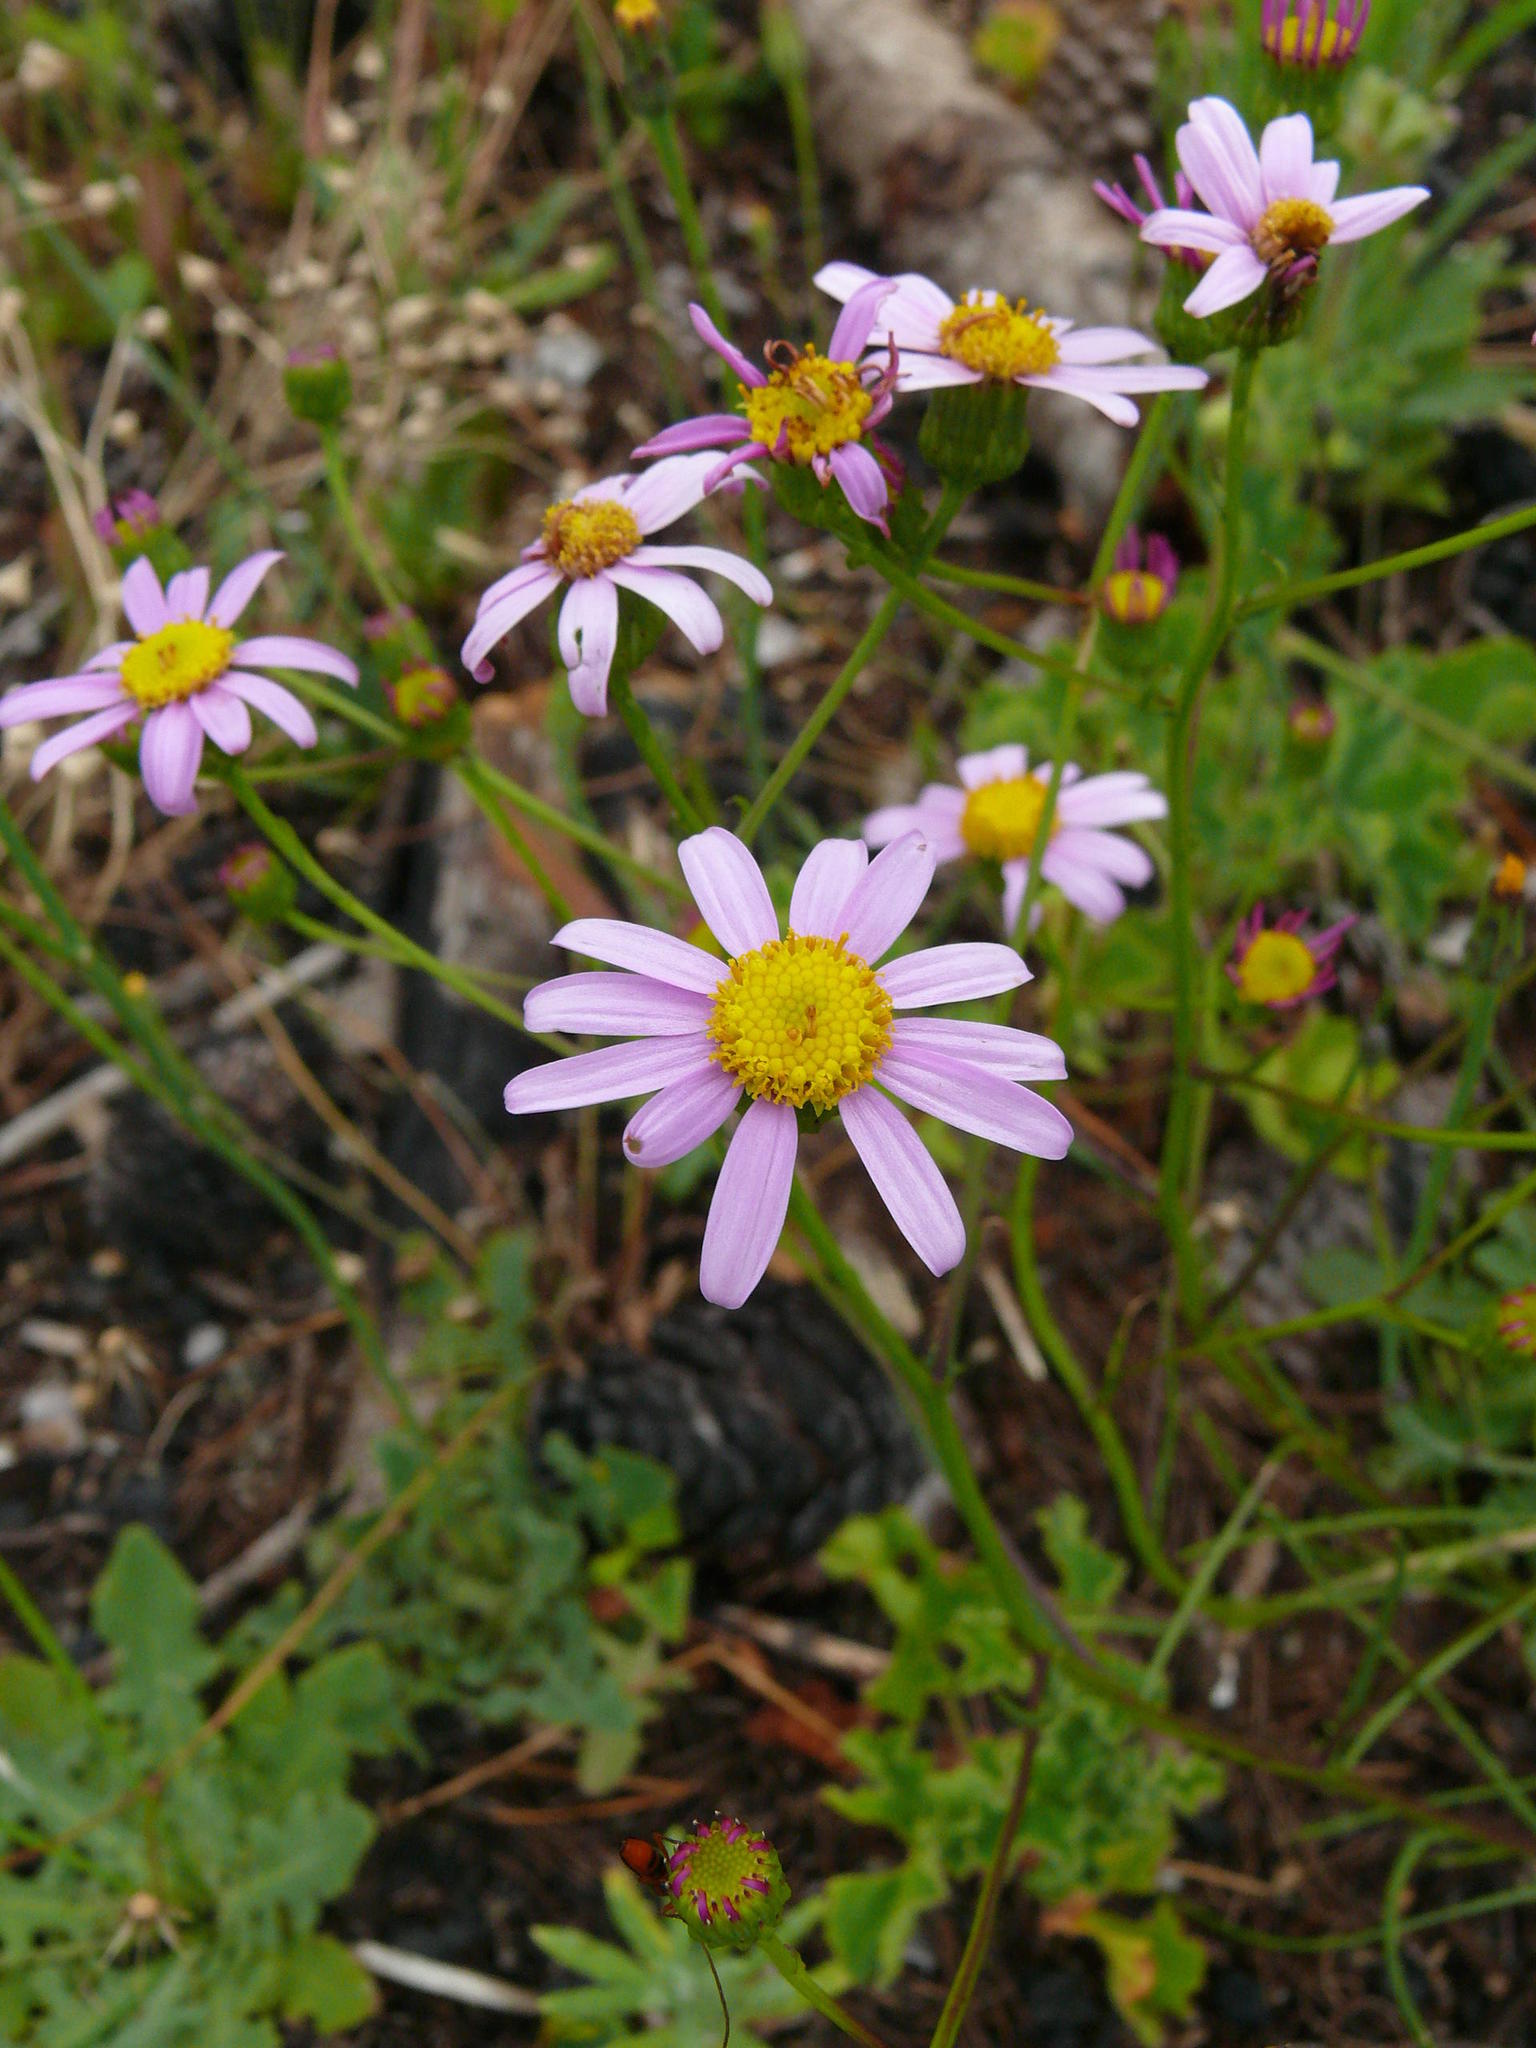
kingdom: Plantae
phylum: Tracheophyta
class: Magnoliopsida
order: Asterales
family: Asteraceae
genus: Senecio
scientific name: Senecio umbellatus
